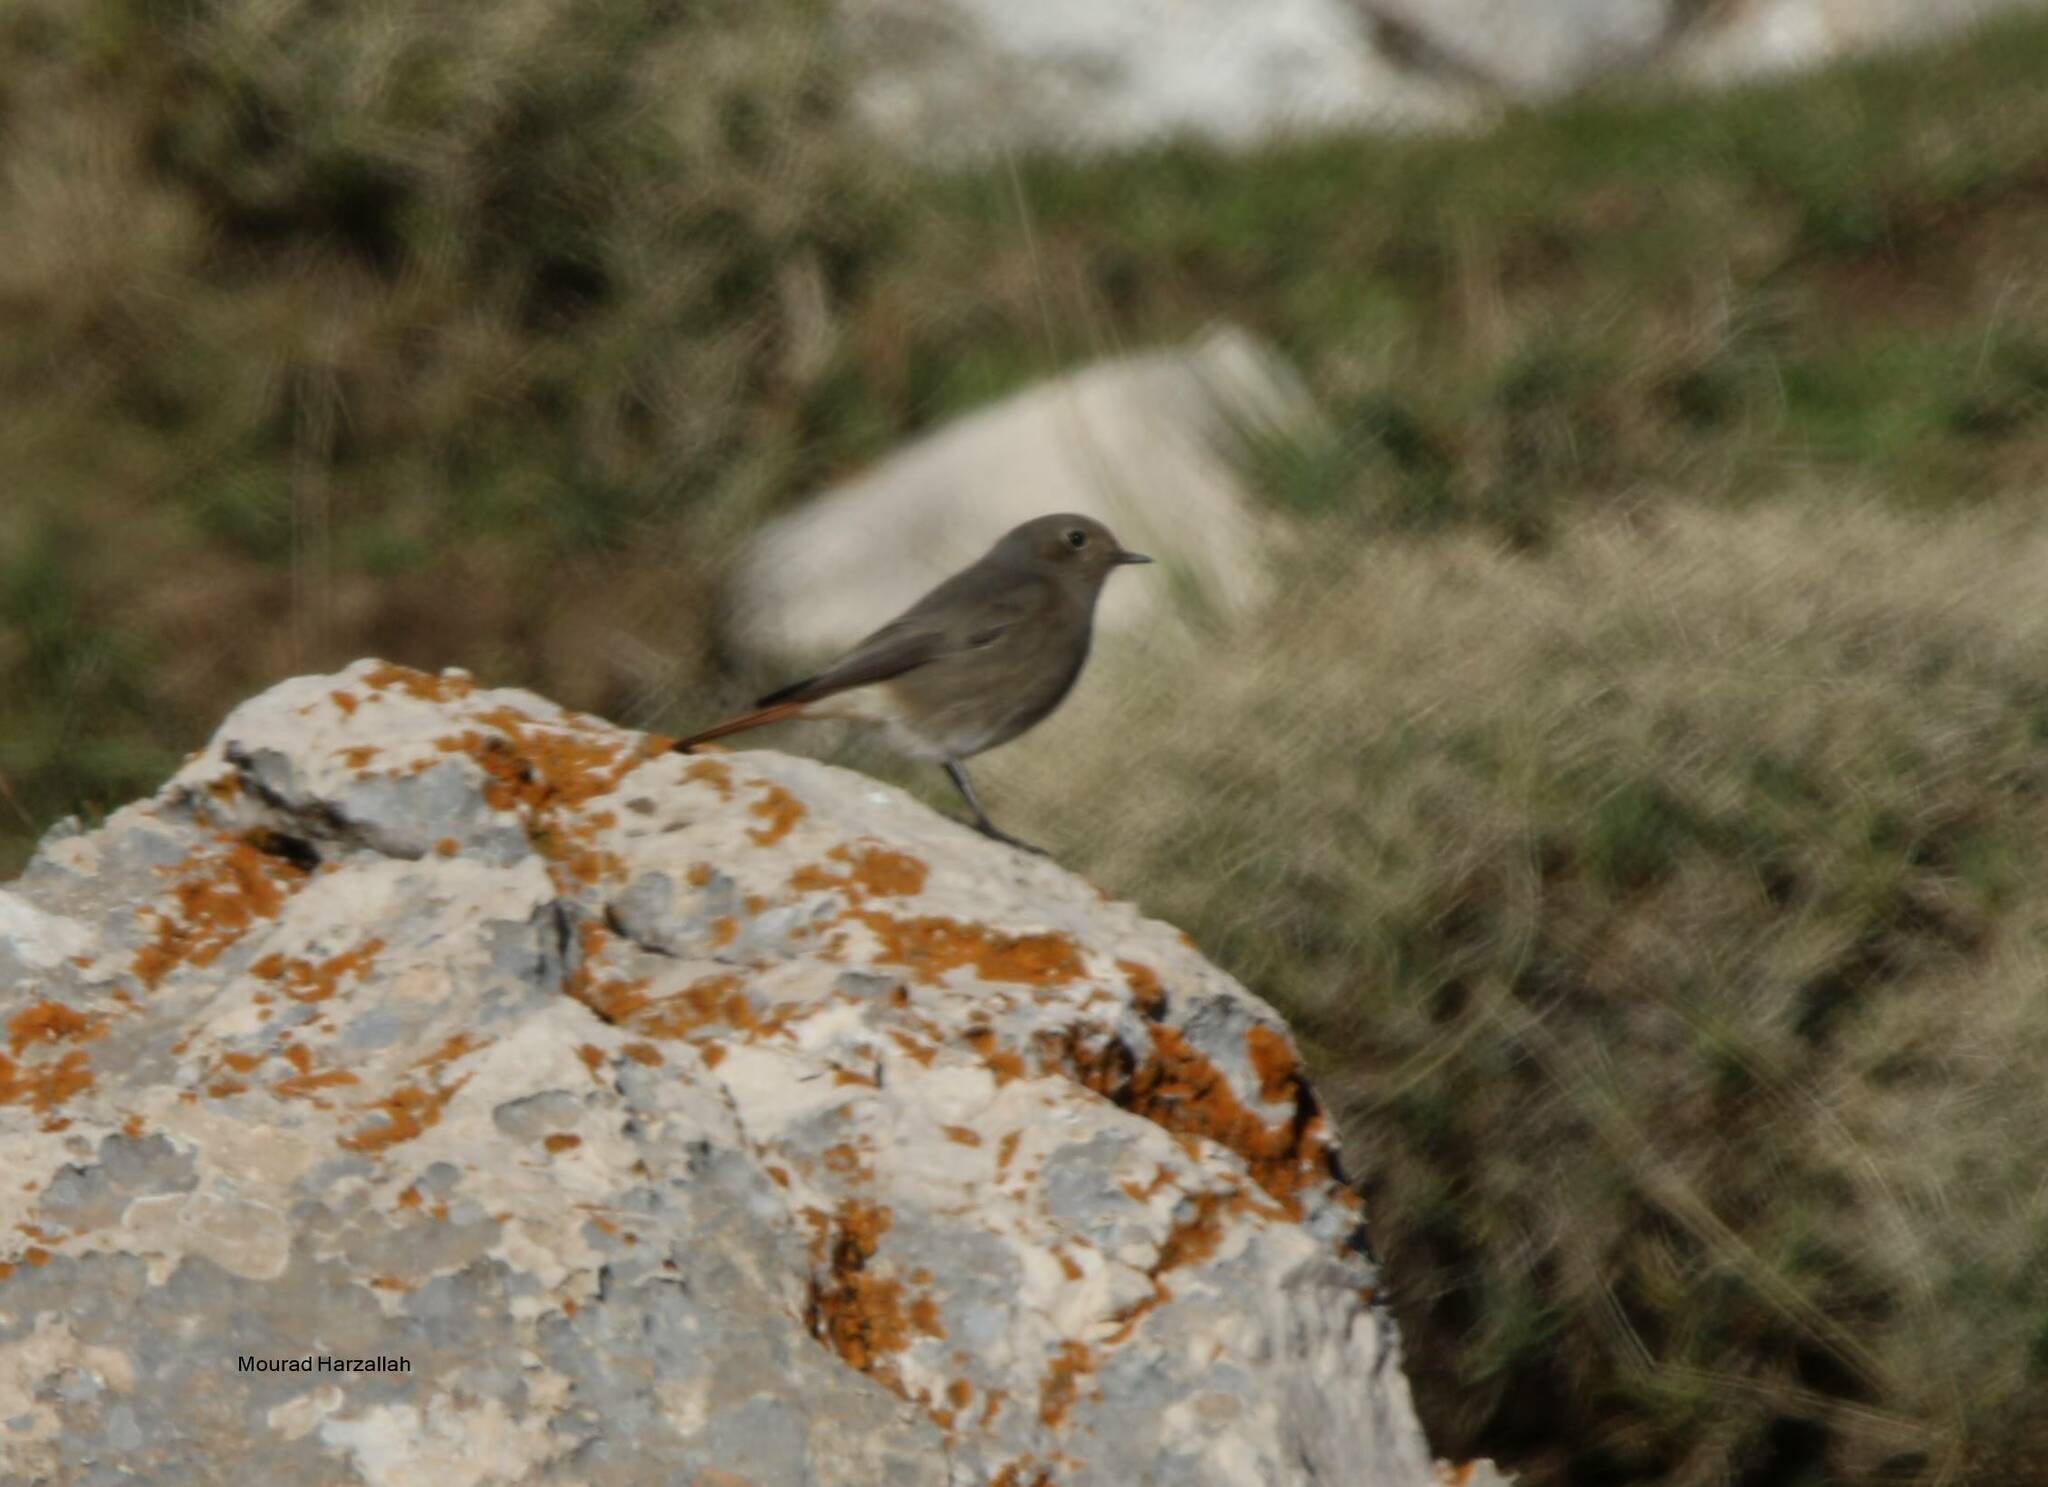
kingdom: Animalia
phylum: Chordata
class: Aves
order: Passeriformes
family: Muscicapidae
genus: Phoenicurus
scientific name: Phoenicurus ochruros
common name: Black redstart
